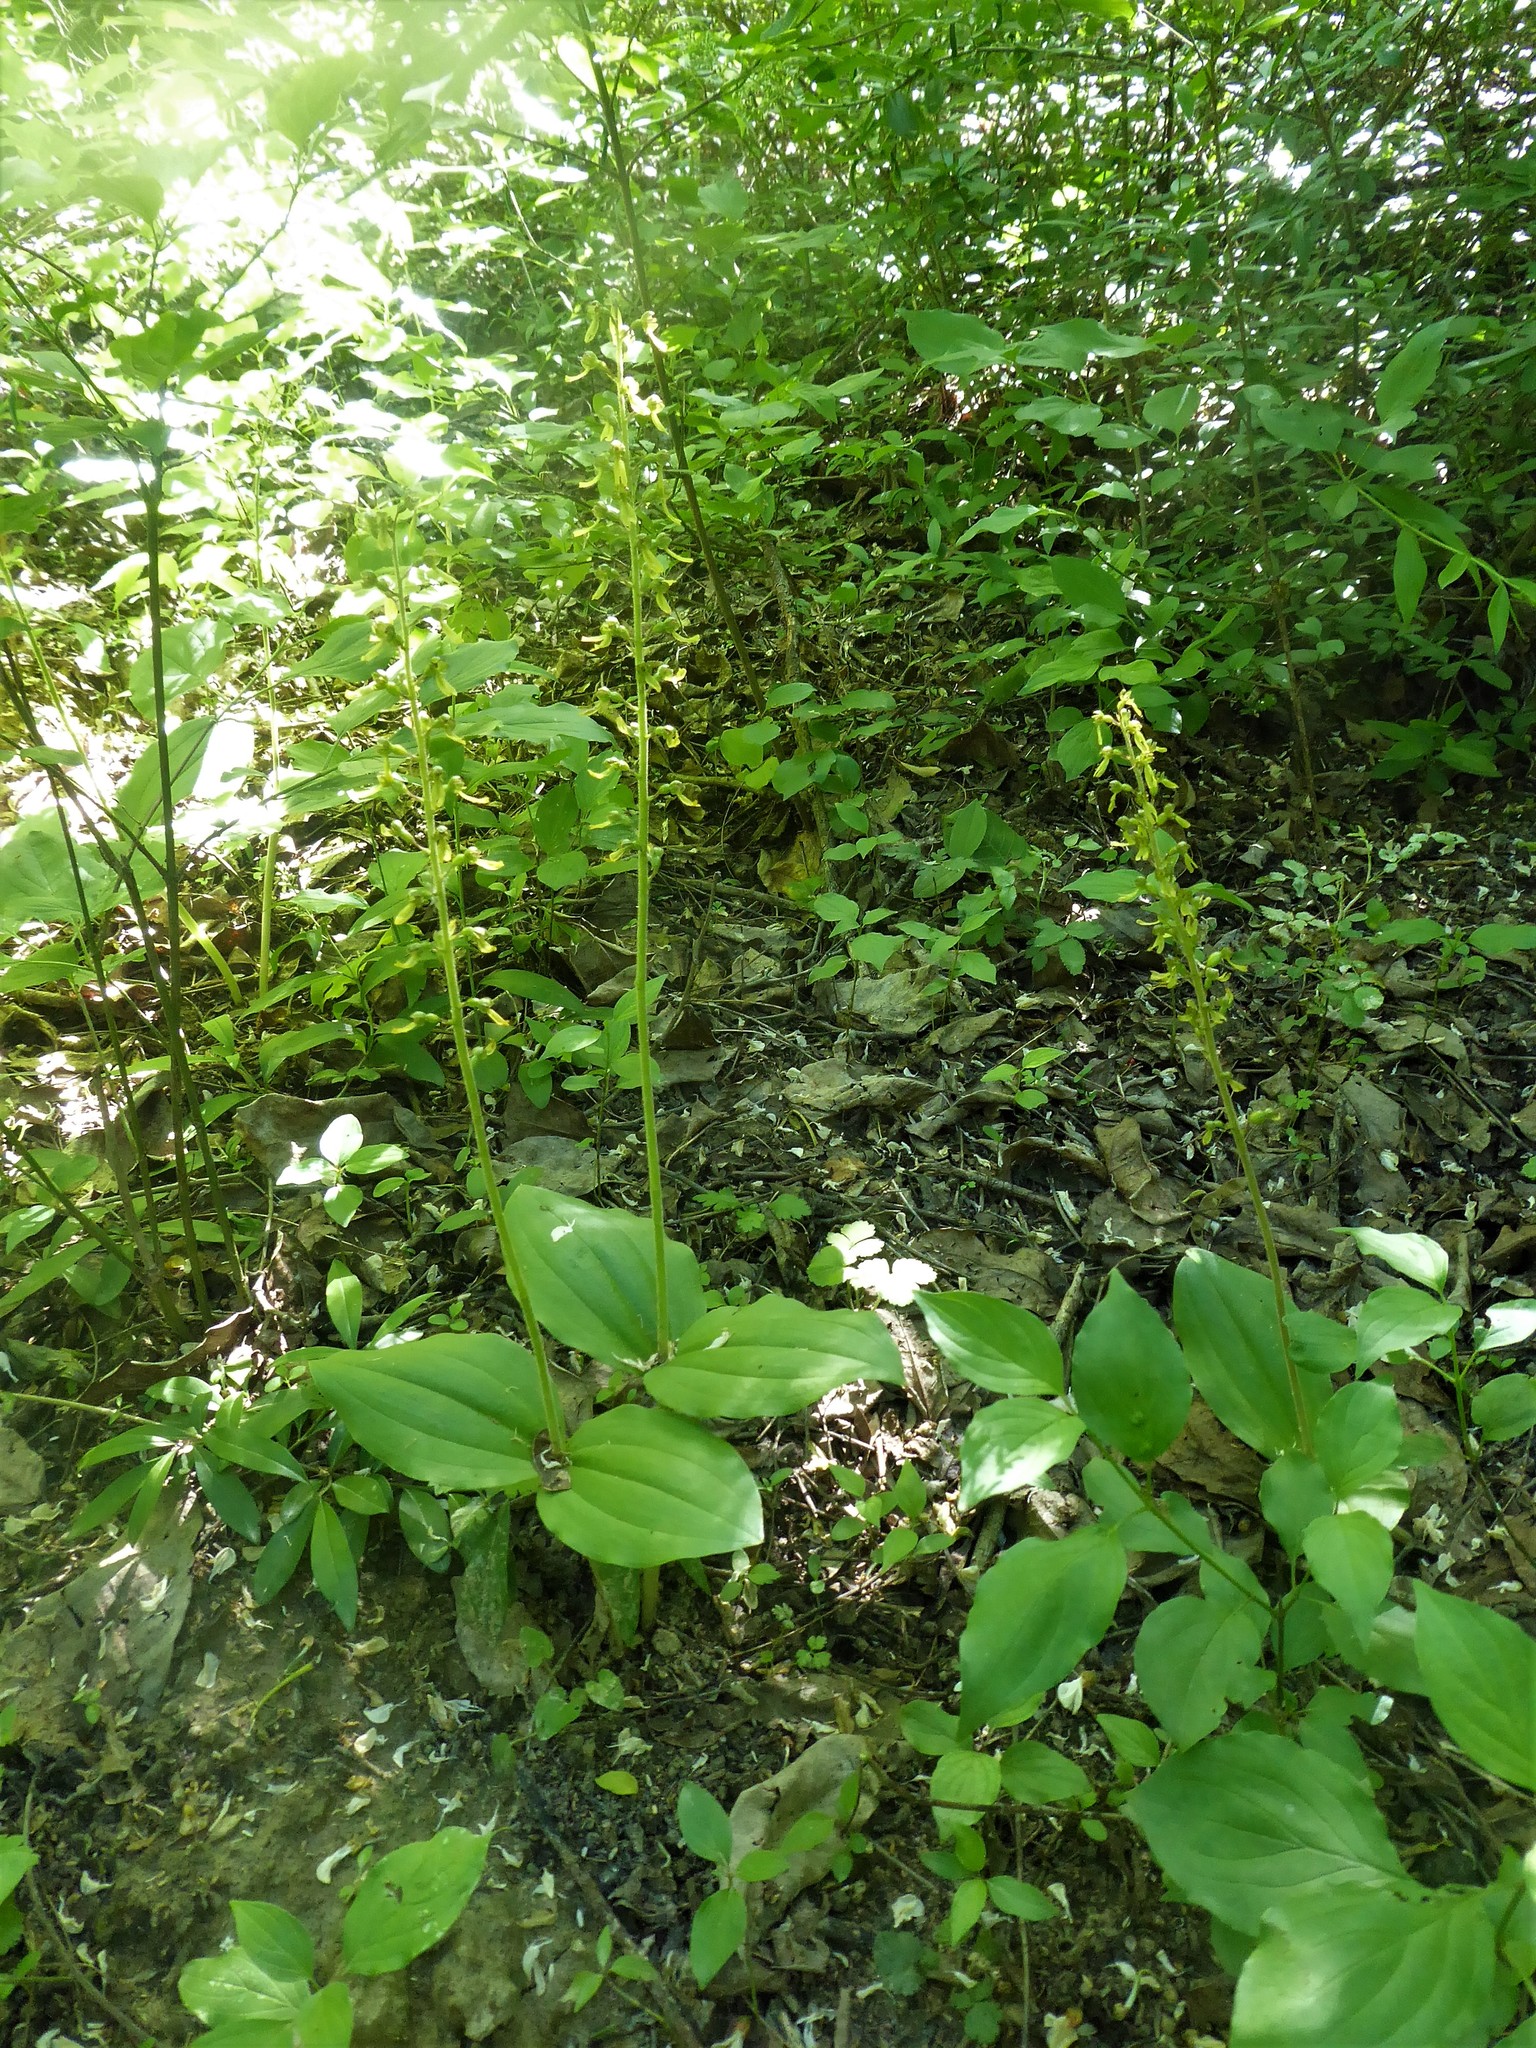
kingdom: Plantae
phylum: Tracheophyta
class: Liliopsida
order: Asparagales
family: Orchidaceae
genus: Neottia
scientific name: Neottia ovata
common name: Common twayblade
